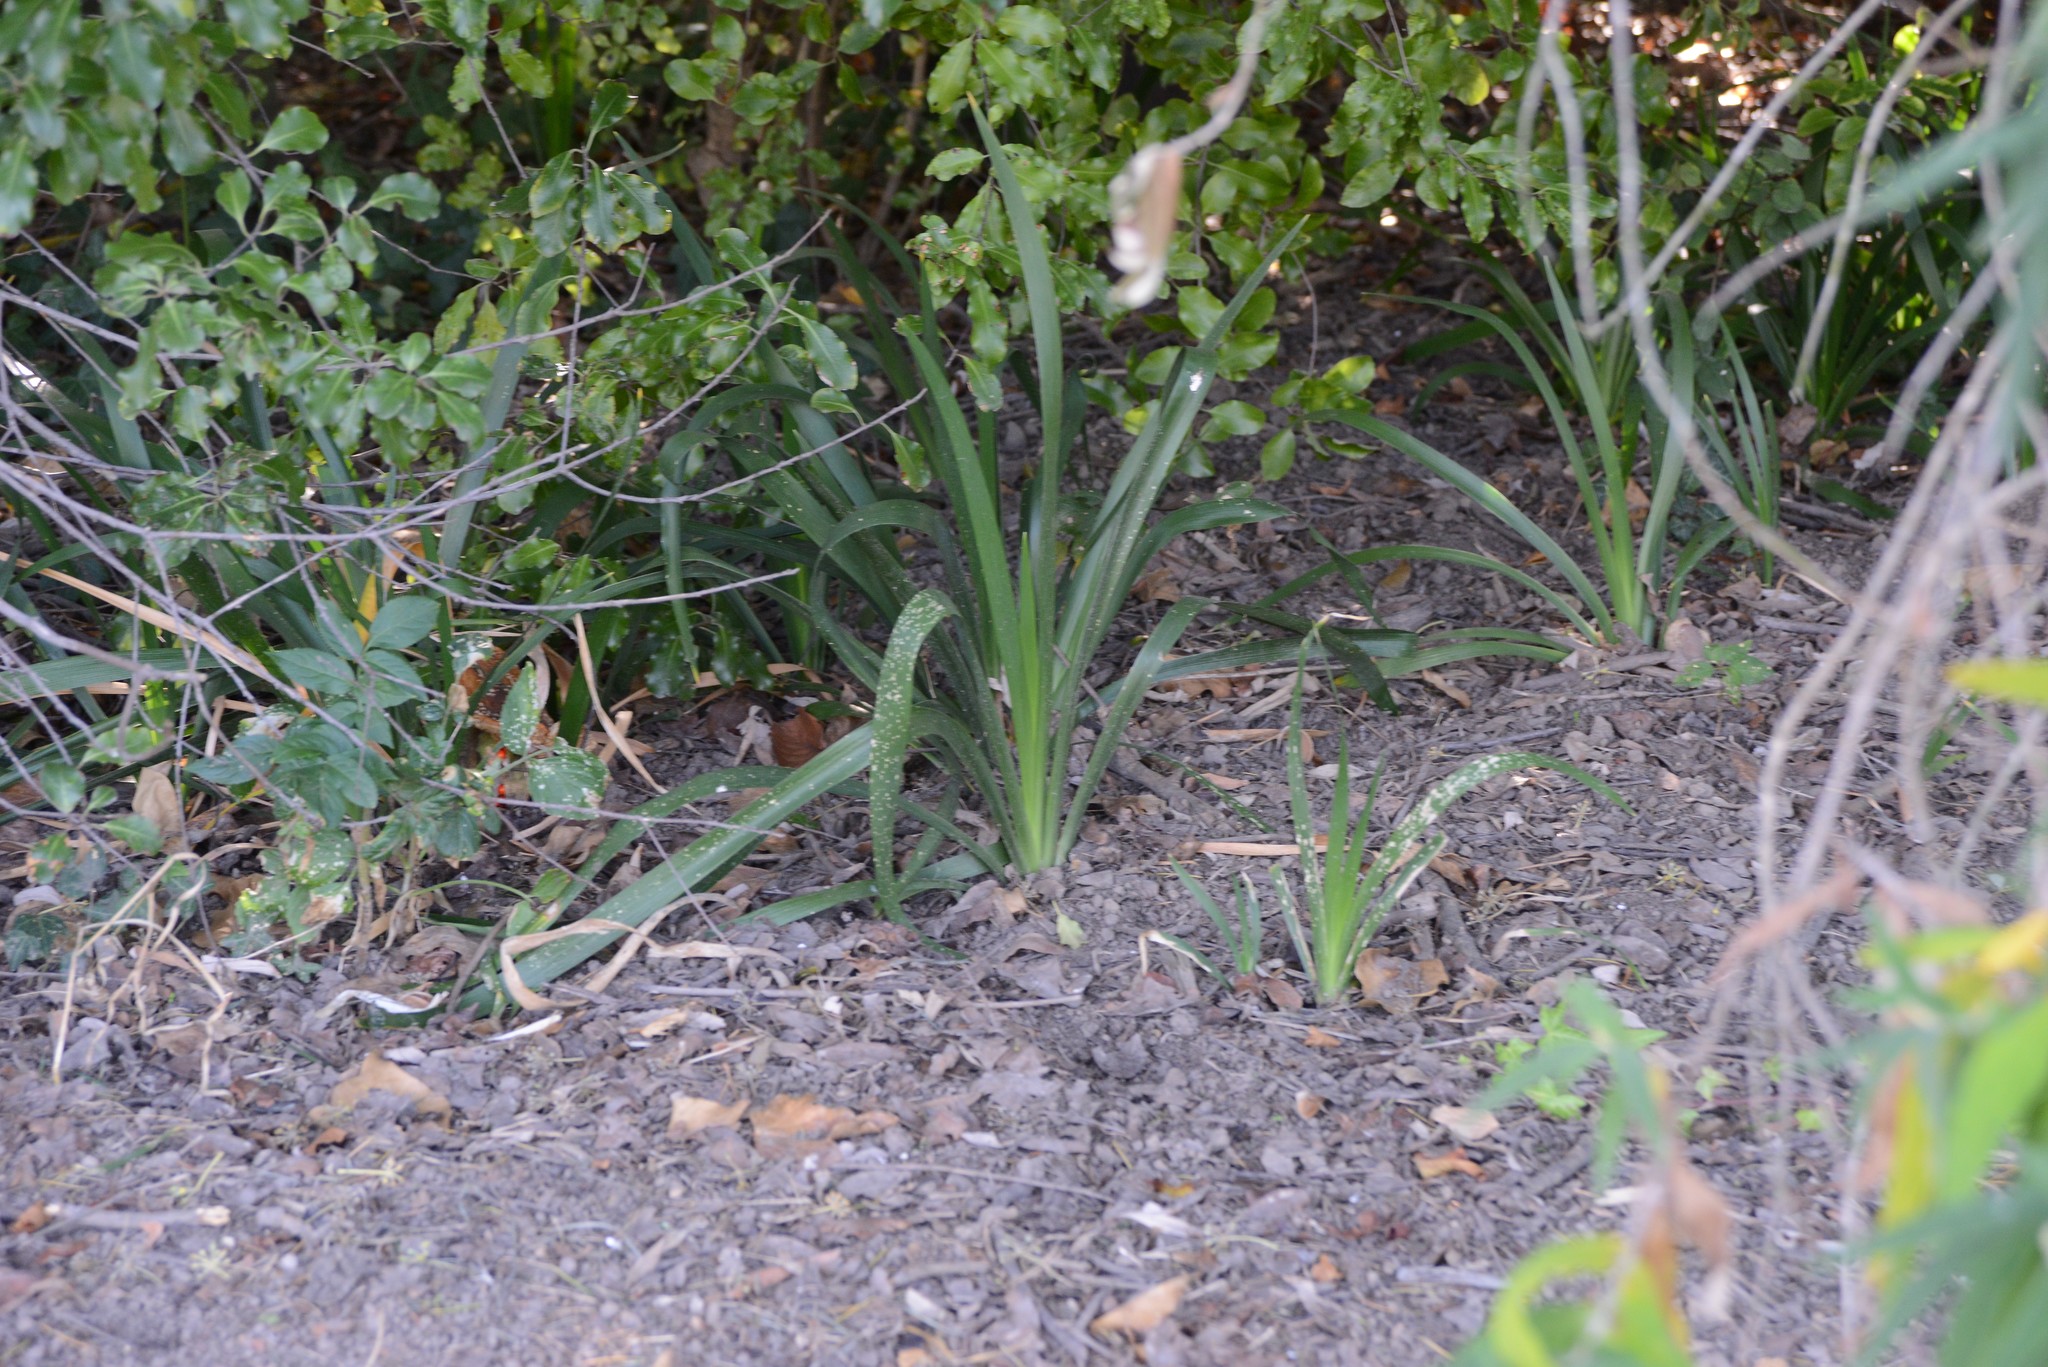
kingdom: Plantae
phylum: Tracheophyta
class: Liliopsida
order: Asparagales
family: Iridaceae
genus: Iris
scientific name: Iris foetidissima
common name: Stinking iris
